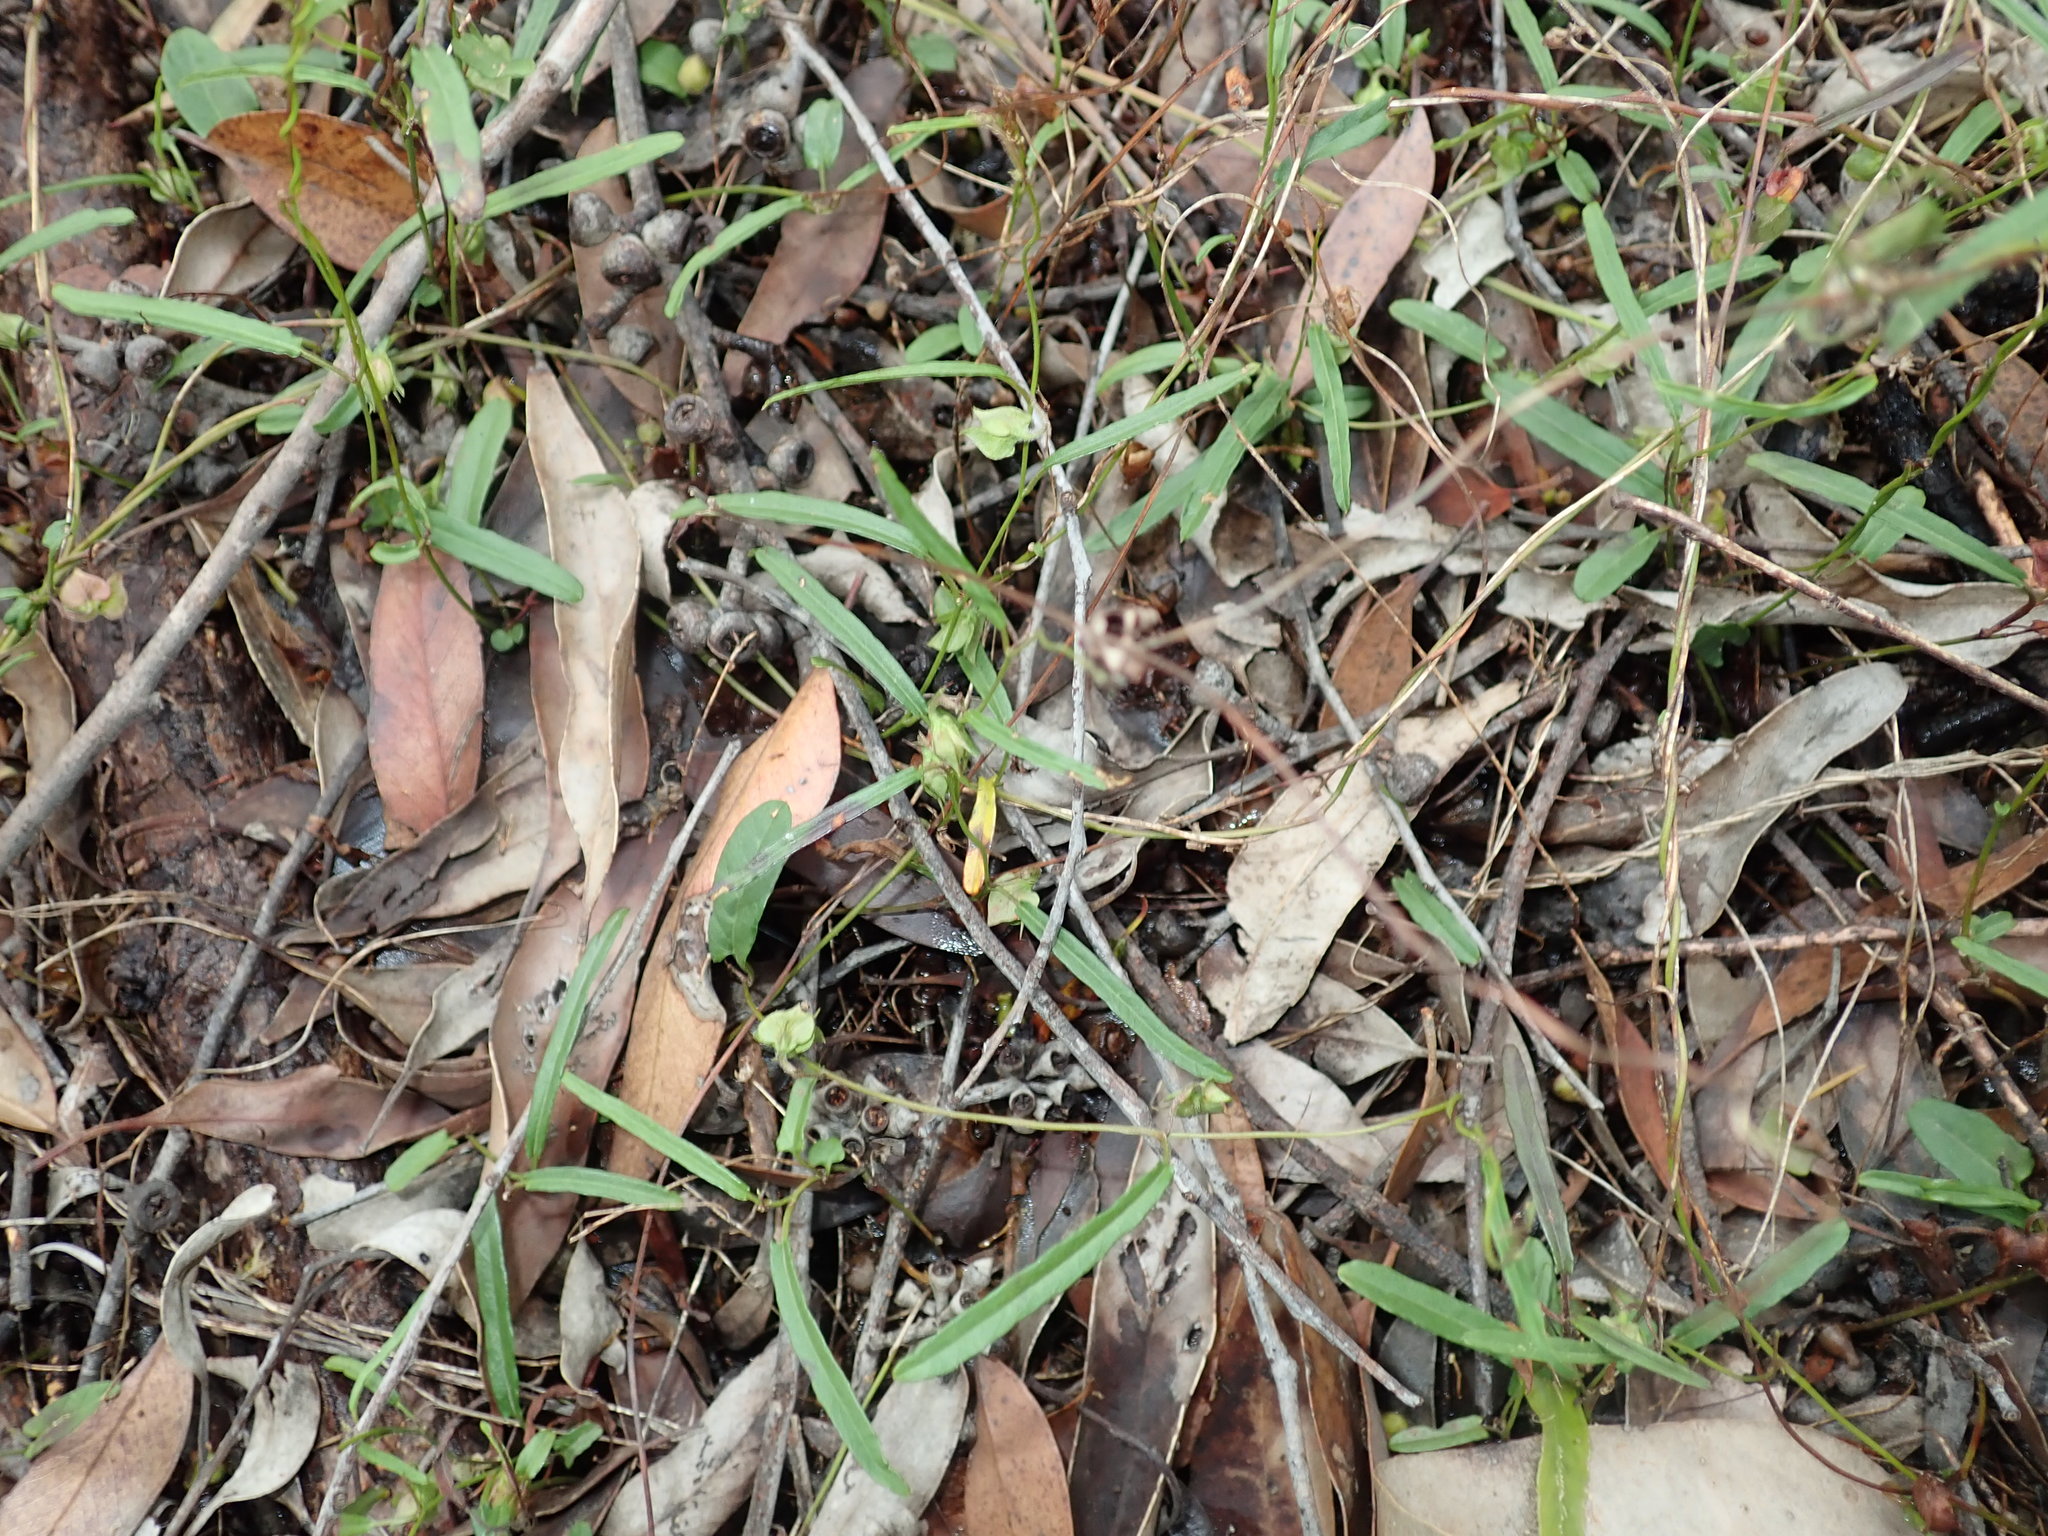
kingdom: Plantae
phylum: Tracheophyta
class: Magnoliopsida
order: Solanales
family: Convolvulaceae
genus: Polymeria
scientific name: Polymeria calycina
